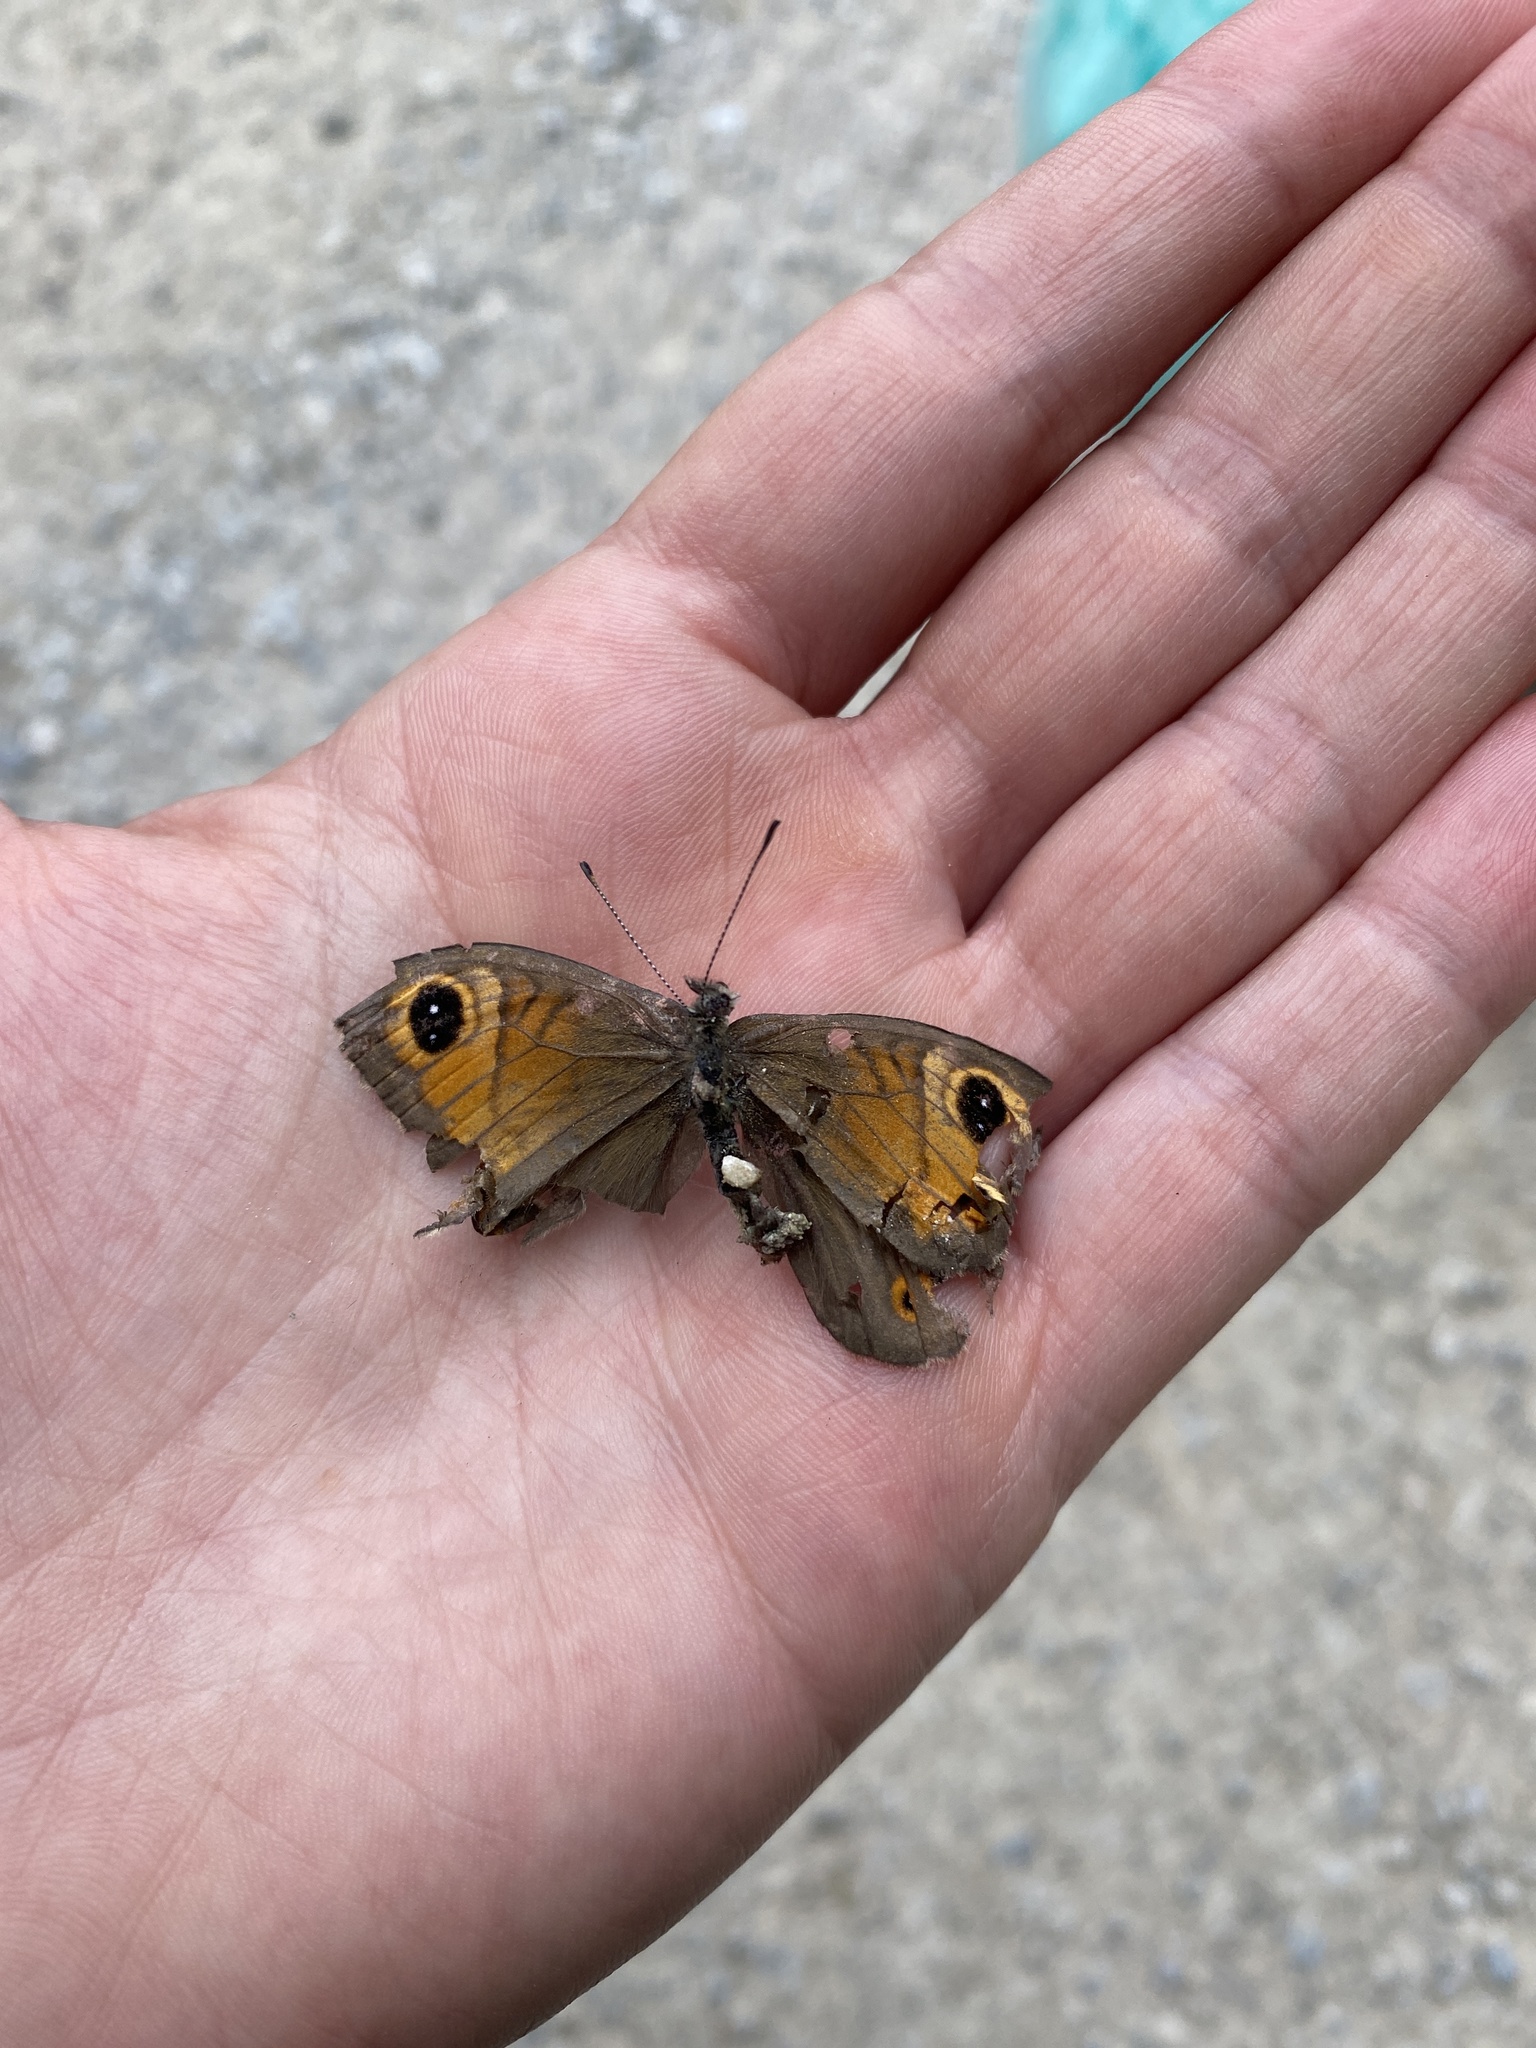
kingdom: Animalia
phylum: Arthropoda
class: Insecta
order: Lepidoptera
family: Nymphalidae
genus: Pararge
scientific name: Pararge Lasiommata maera
